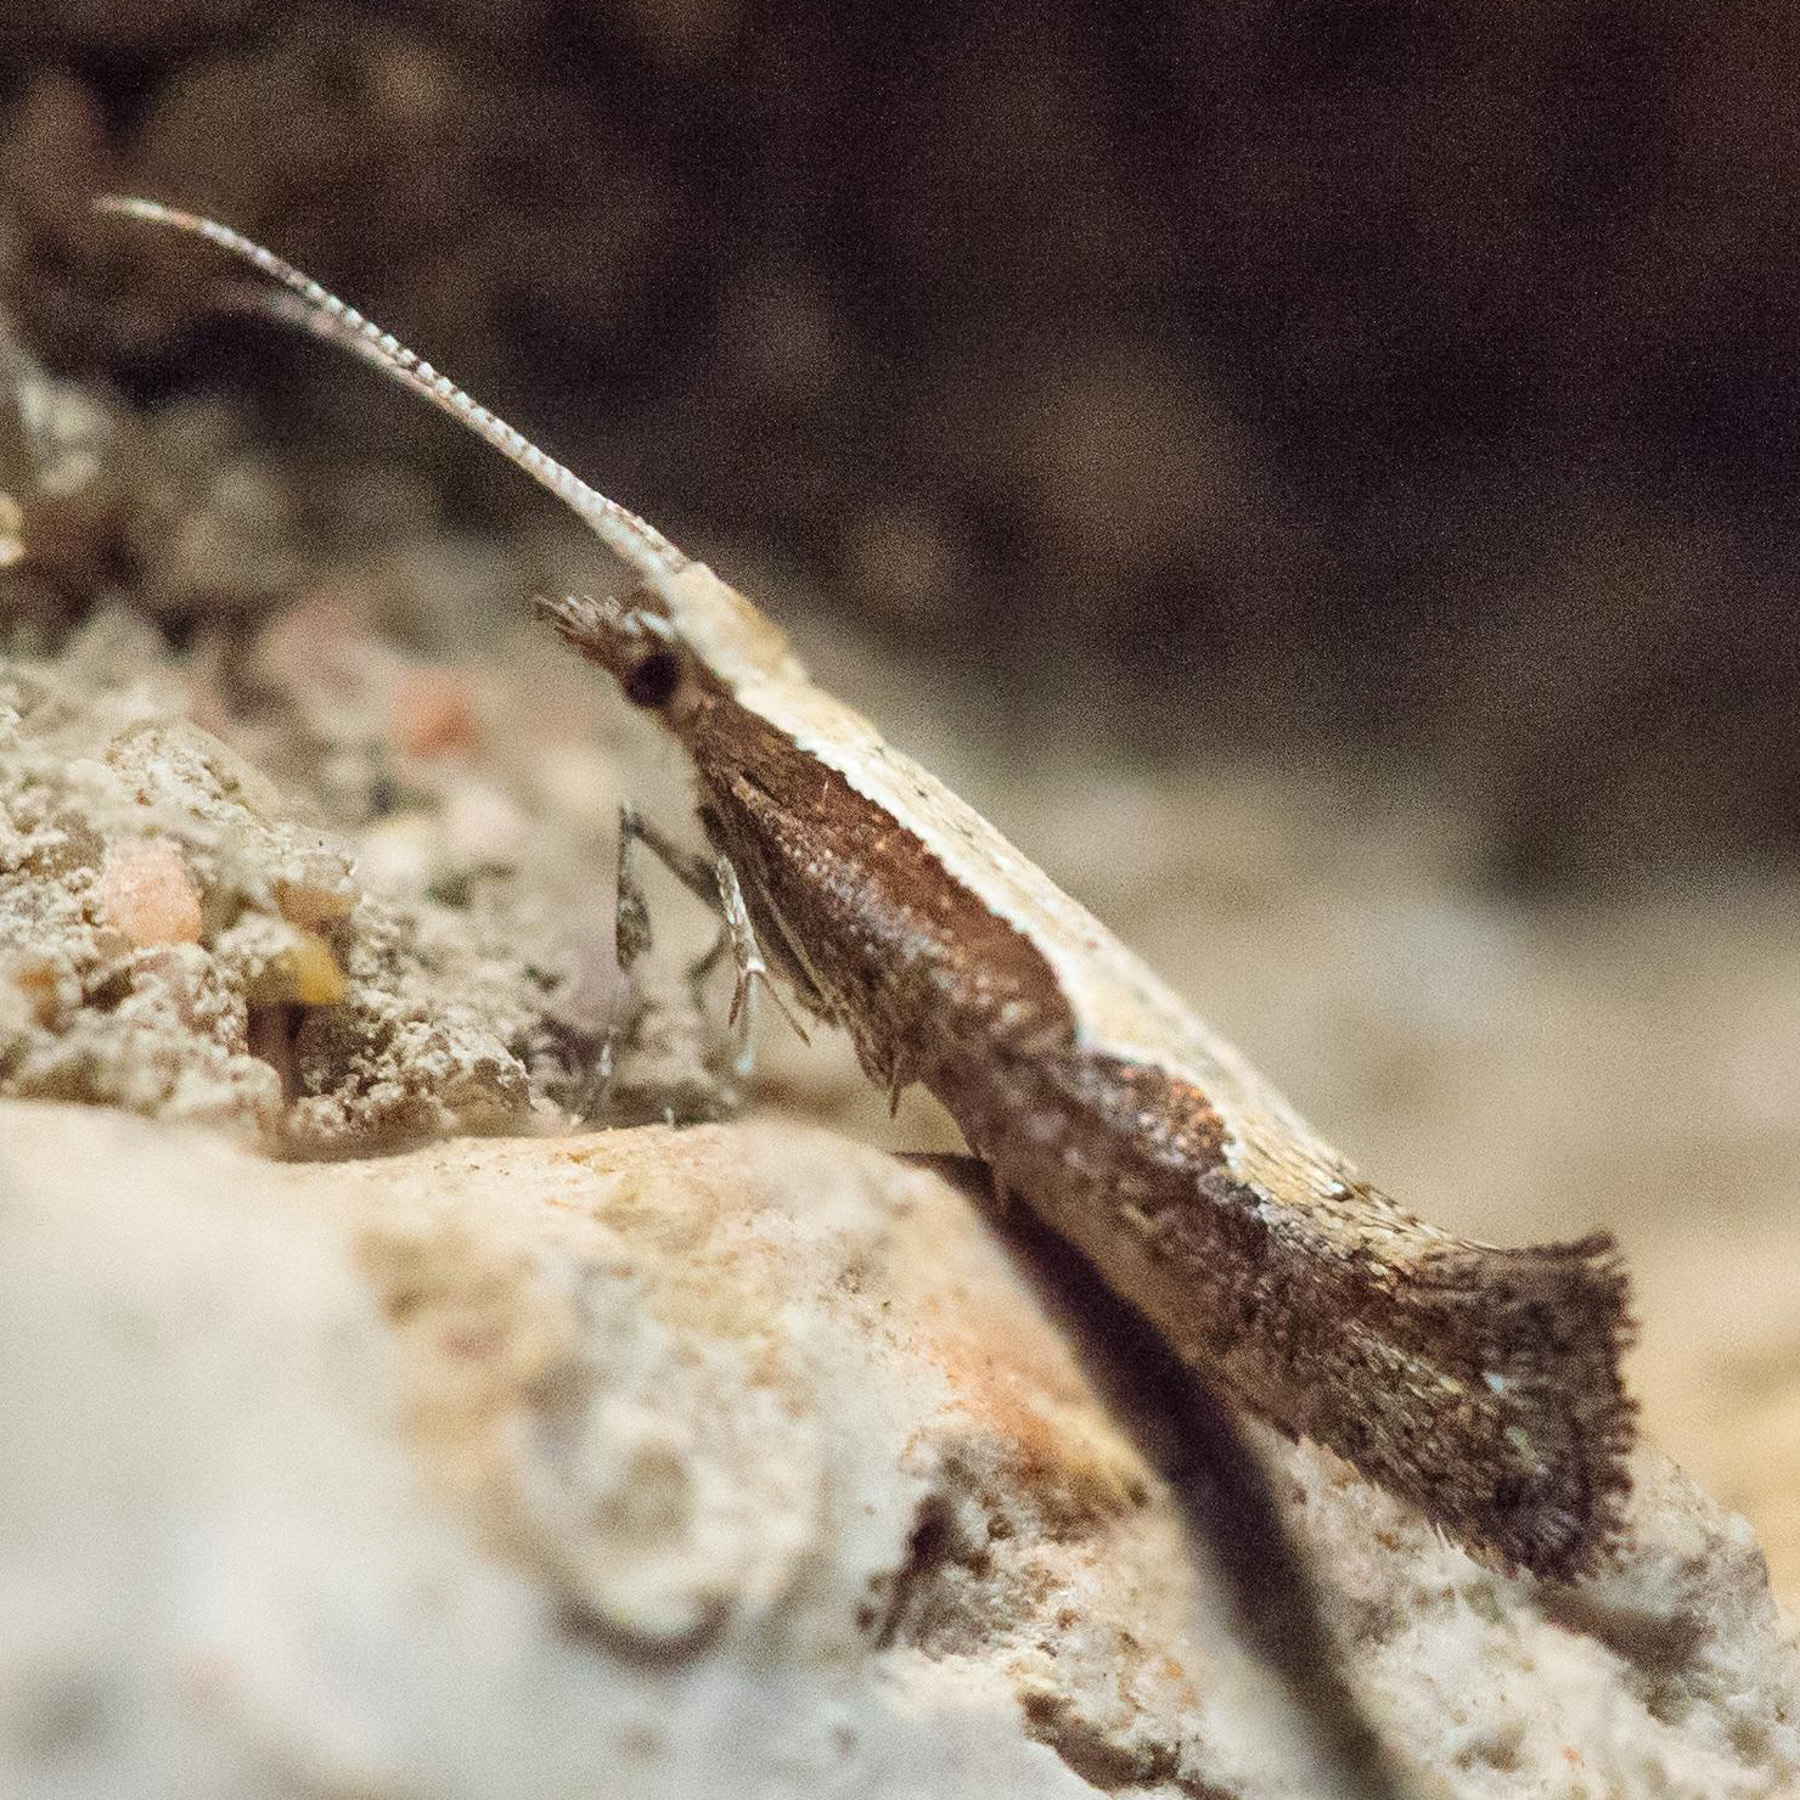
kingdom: Animalia
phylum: Arthropoda
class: Insecta
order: Lepidoptera
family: Plutellidae
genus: Plutella
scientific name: Plutella xylostella
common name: Diamond-back moth
